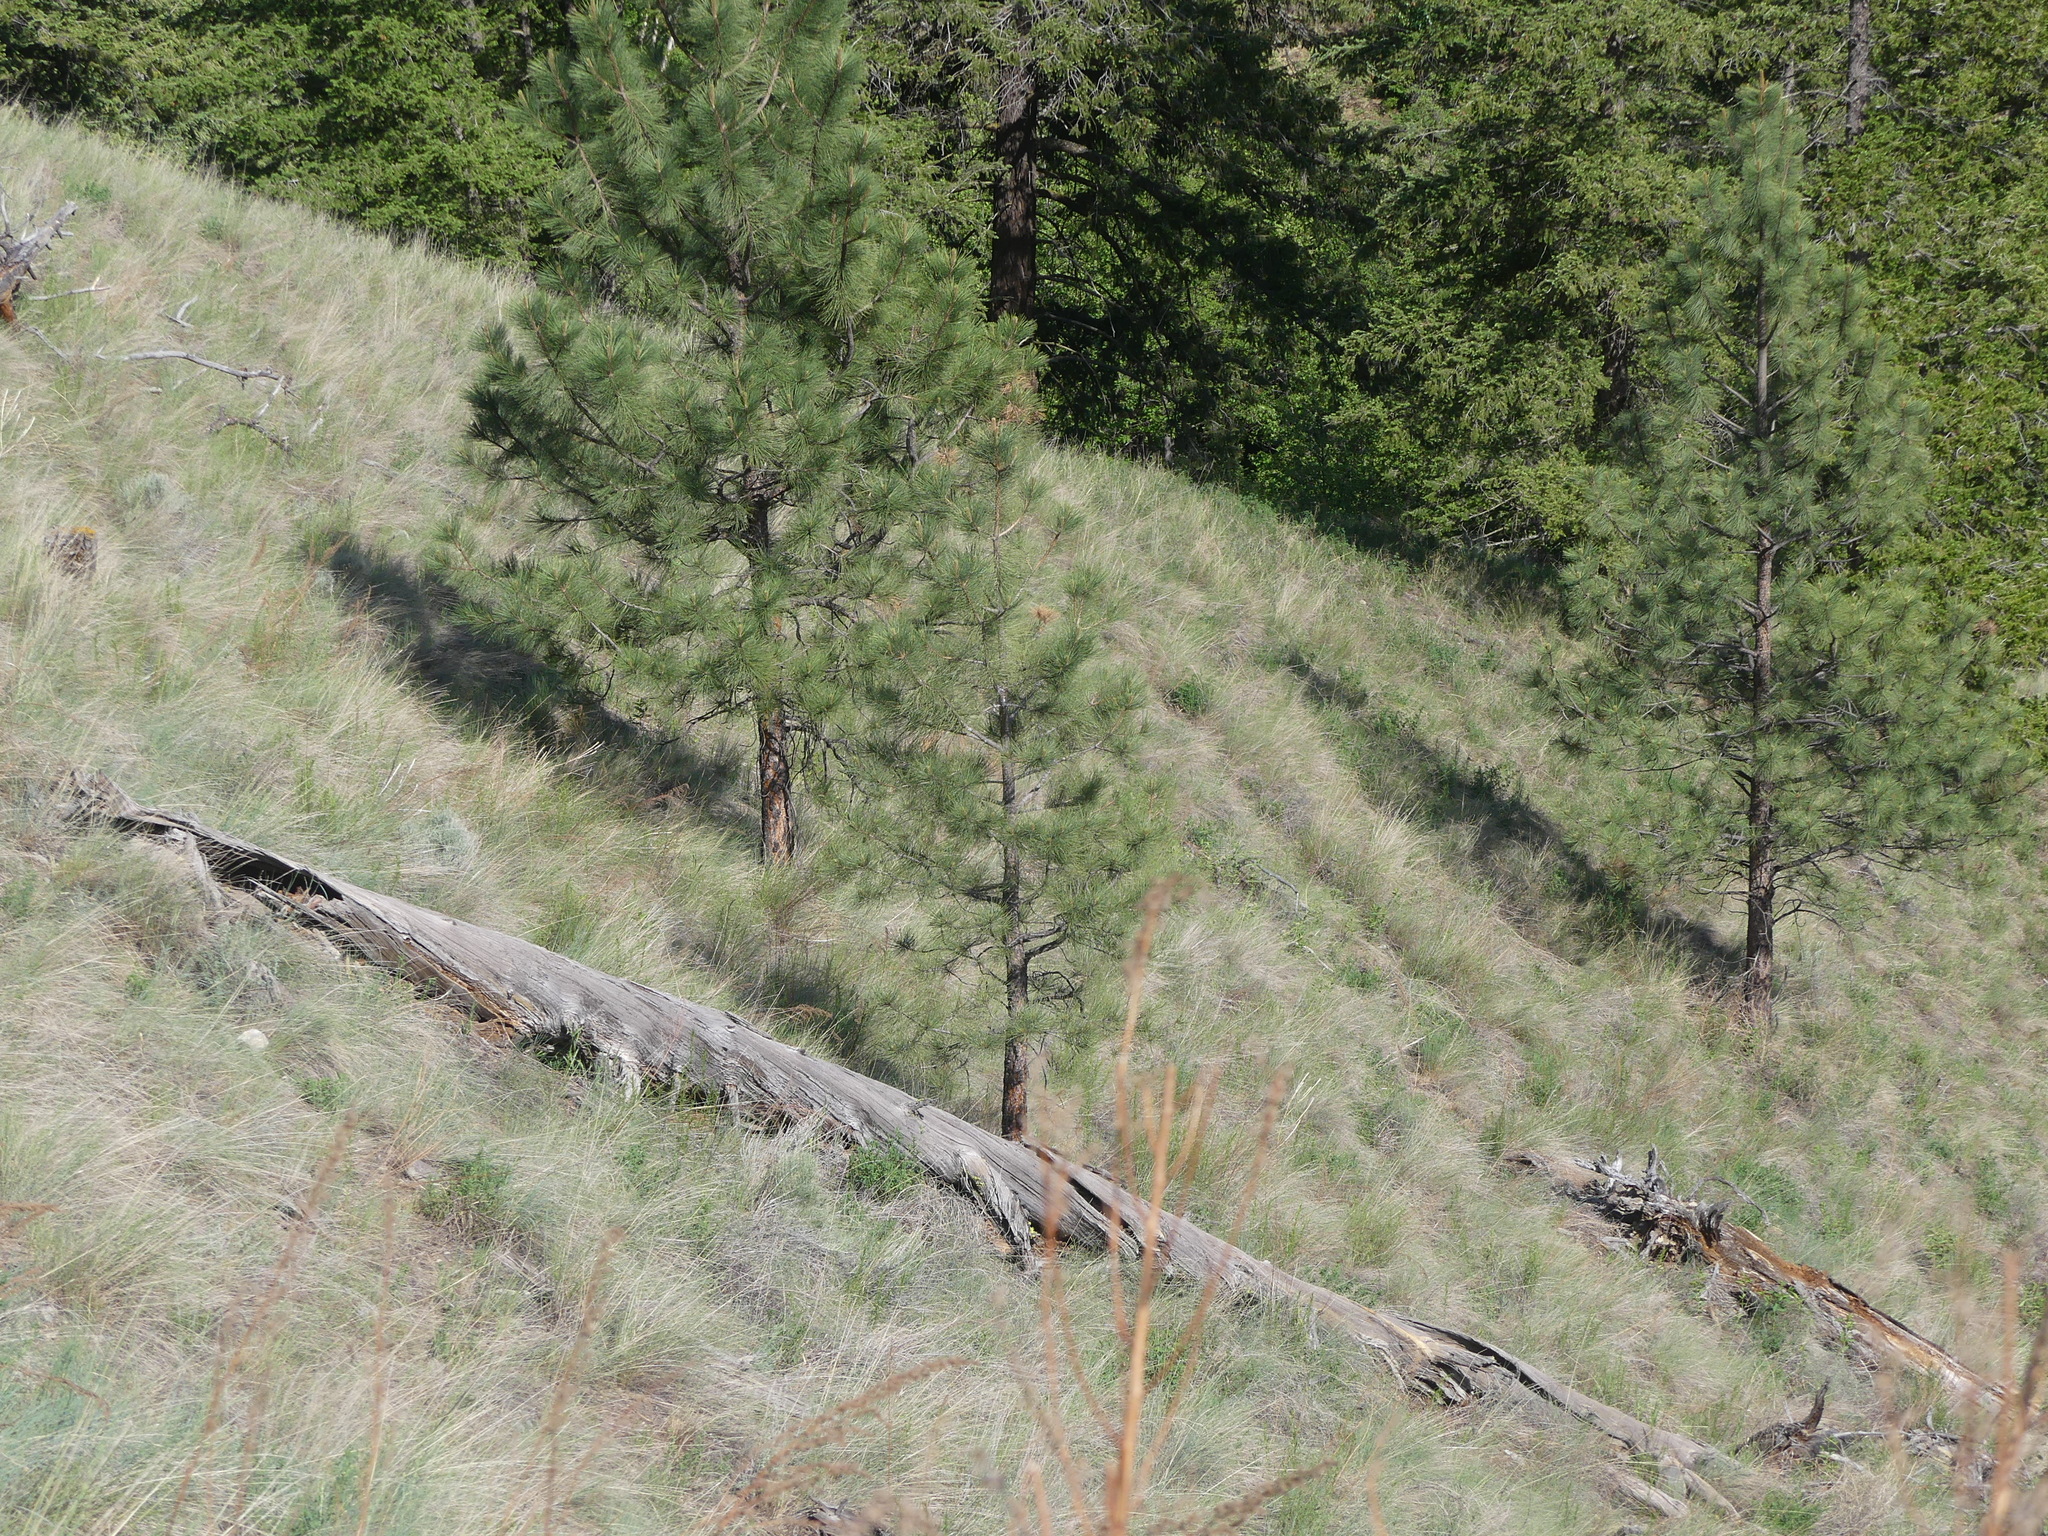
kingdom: Plantae
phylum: Tracheophyta
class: Pinopsida
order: Pinales
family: Pinaceae
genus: Pinus
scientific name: Pinus ponderosa
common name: Western yellow-pine
